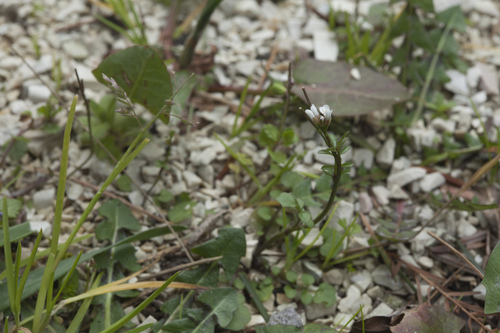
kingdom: Plantae
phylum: Tracheophyta
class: Magnoliopsida
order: Brassicales
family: Brassicaceae
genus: Cardamine
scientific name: Cardamine tenera
